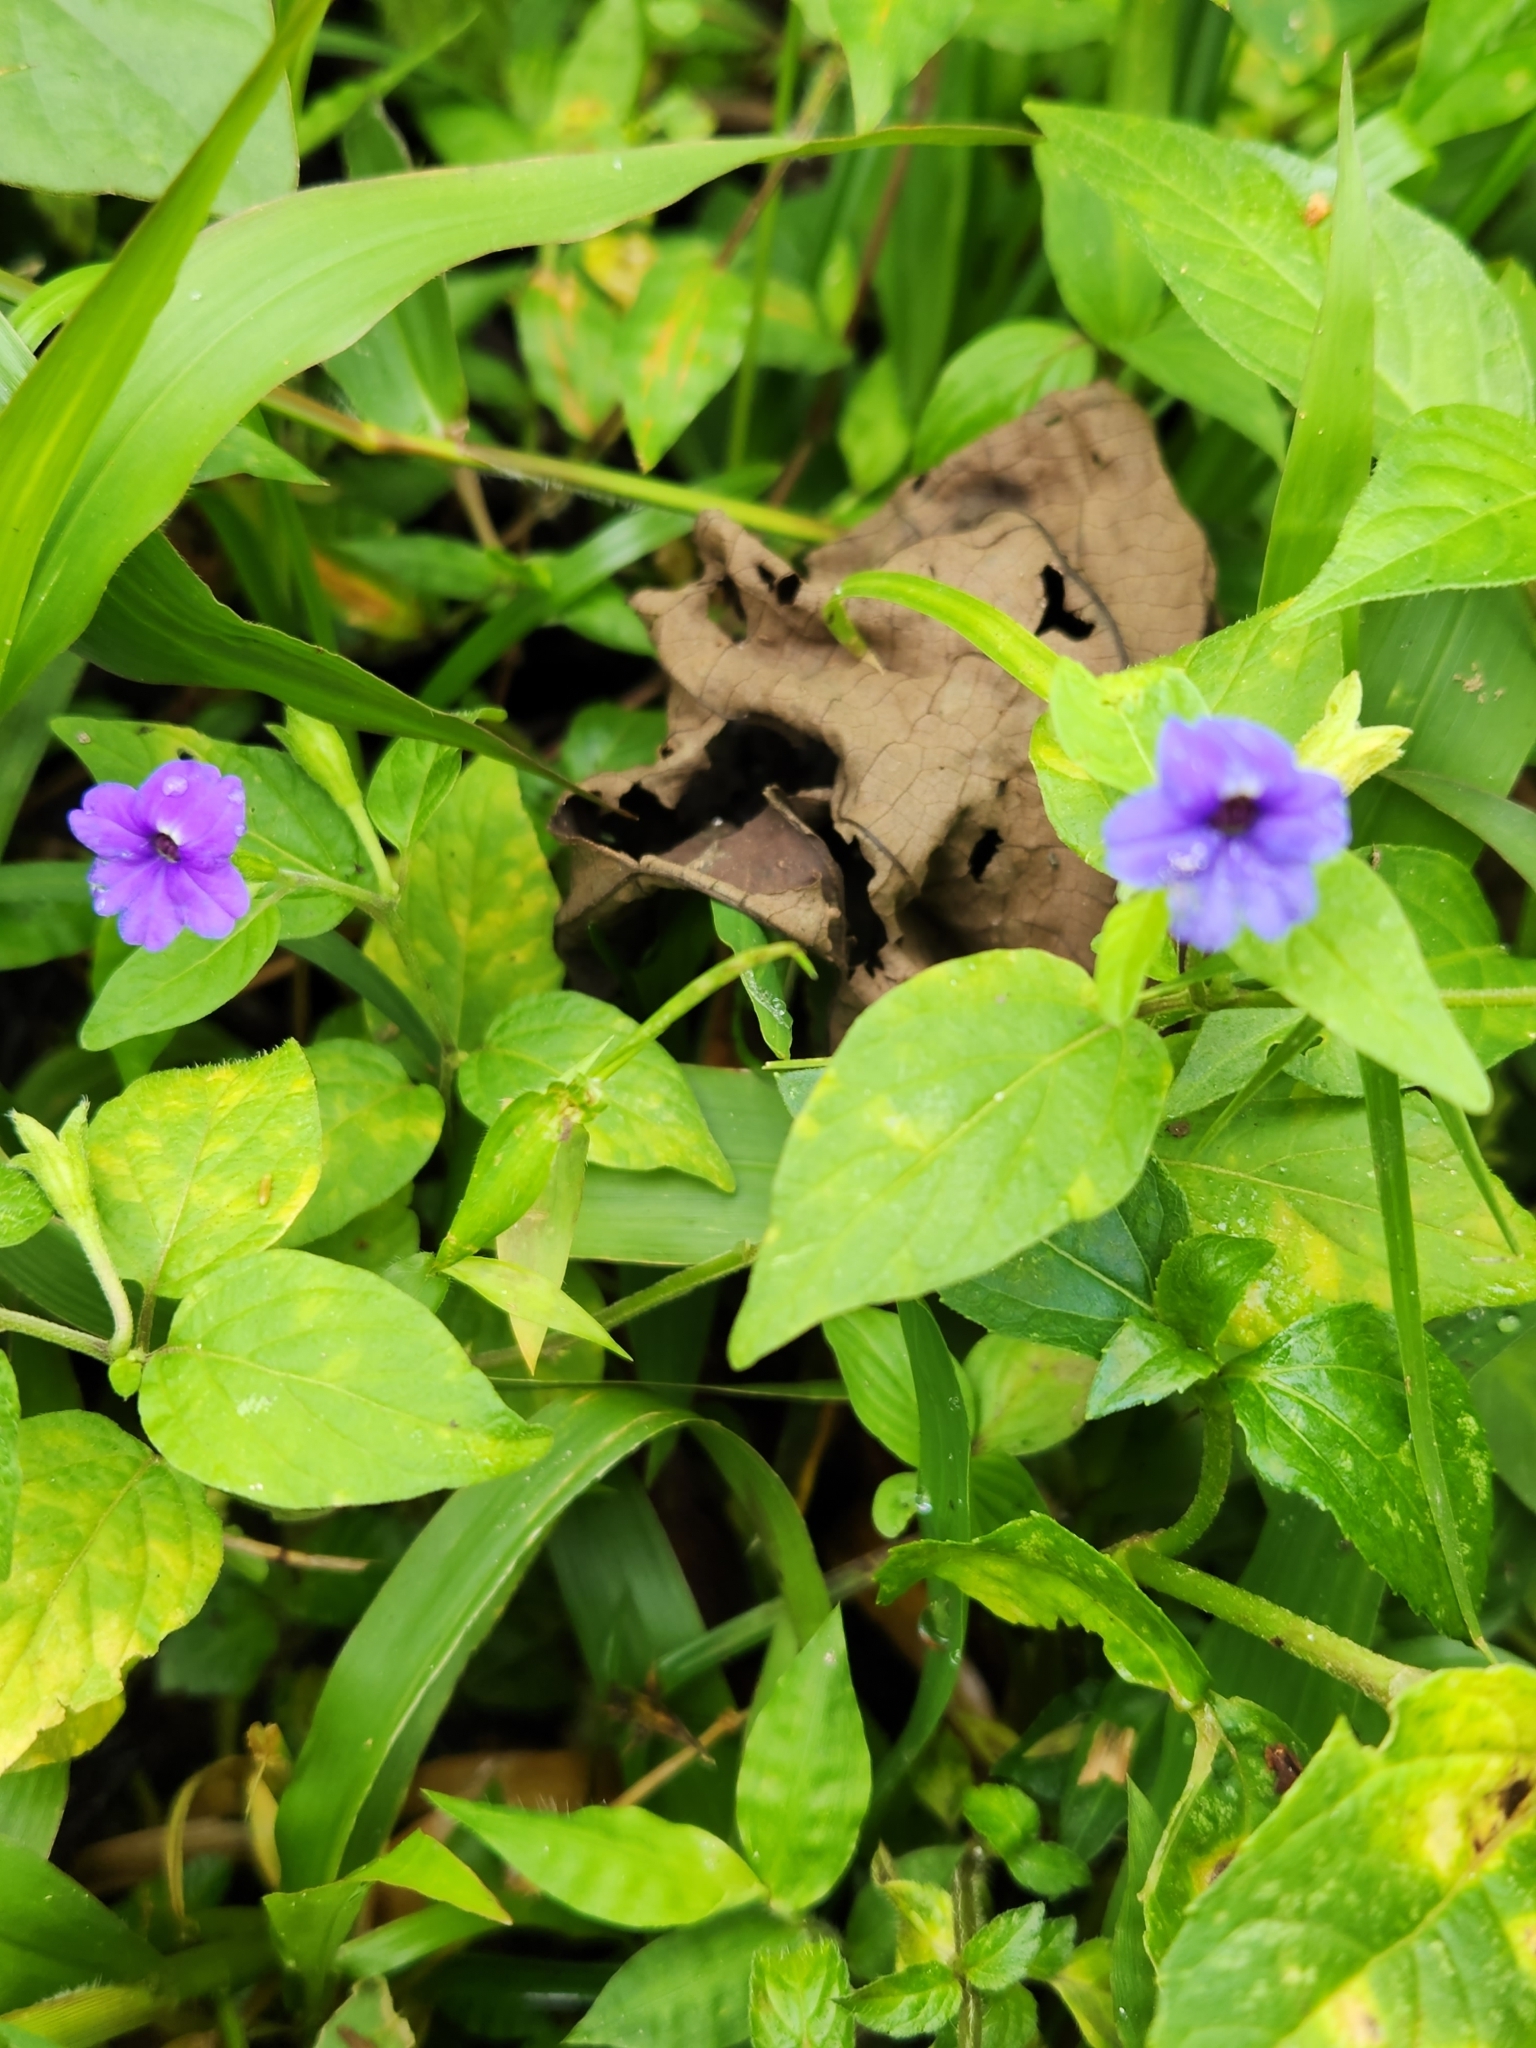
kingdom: Plantae
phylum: Tracheophyta
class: Magnoliopsida
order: Solanales
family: Solanaceae
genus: Browallia
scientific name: Browallia americana
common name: Jamaican forget-me-not
